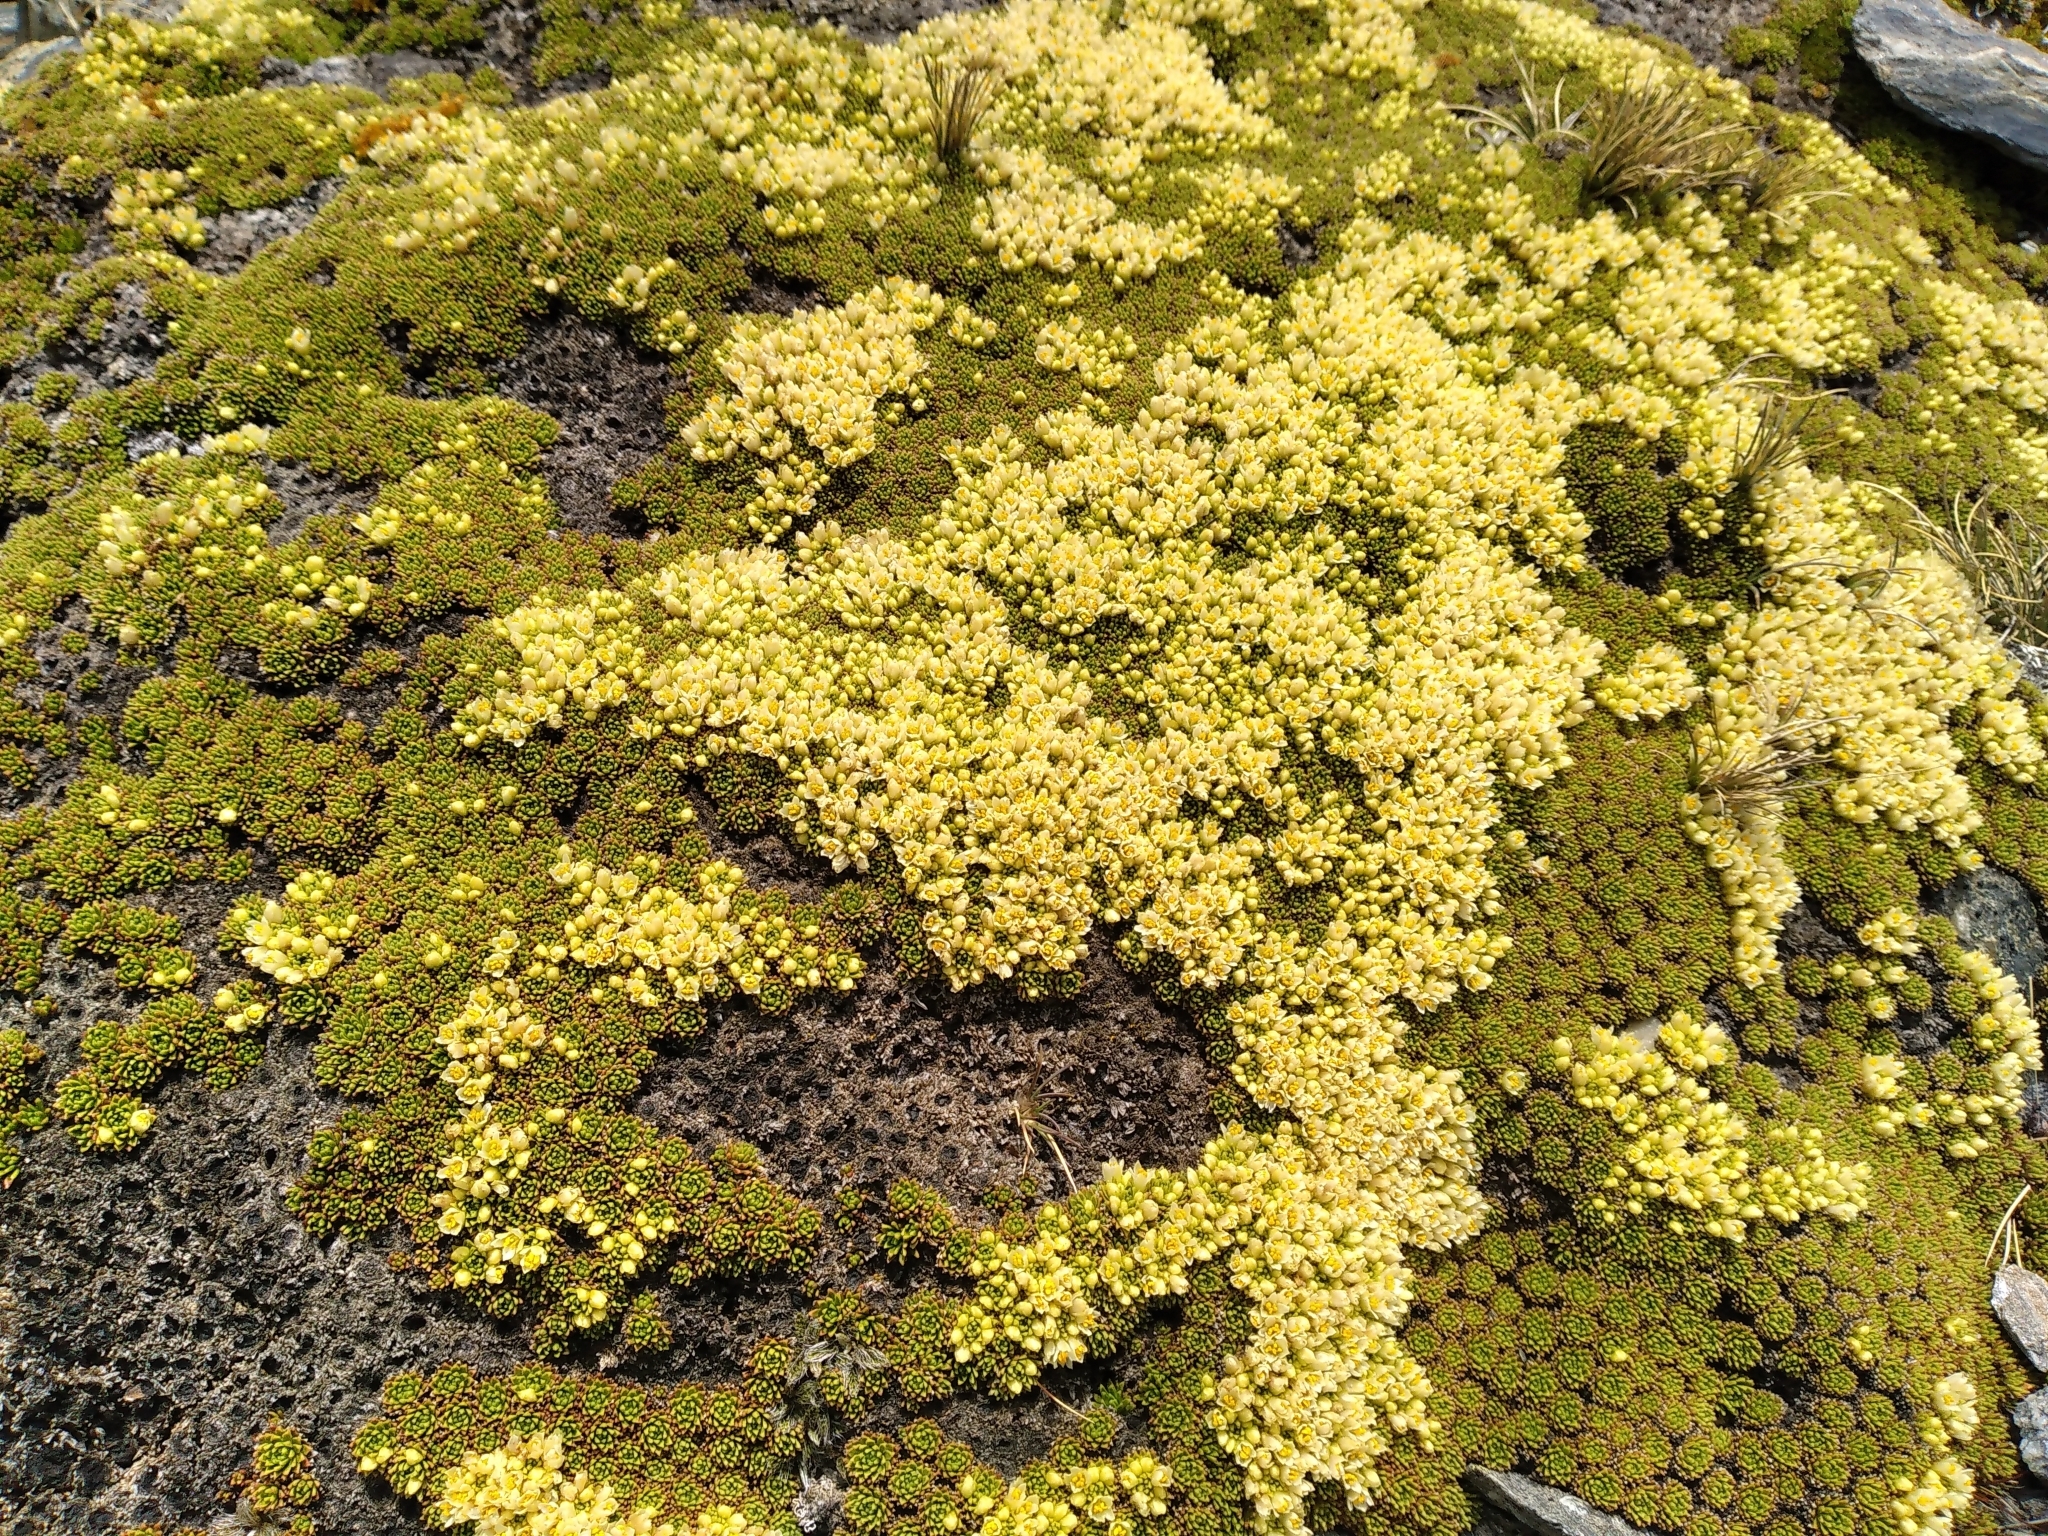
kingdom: Plantae
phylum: Tracheophyta
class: Magnoliopsida
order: Caryophyllales
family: Montiaceae
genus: Hectorella
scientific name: Hectorella caespitosa
